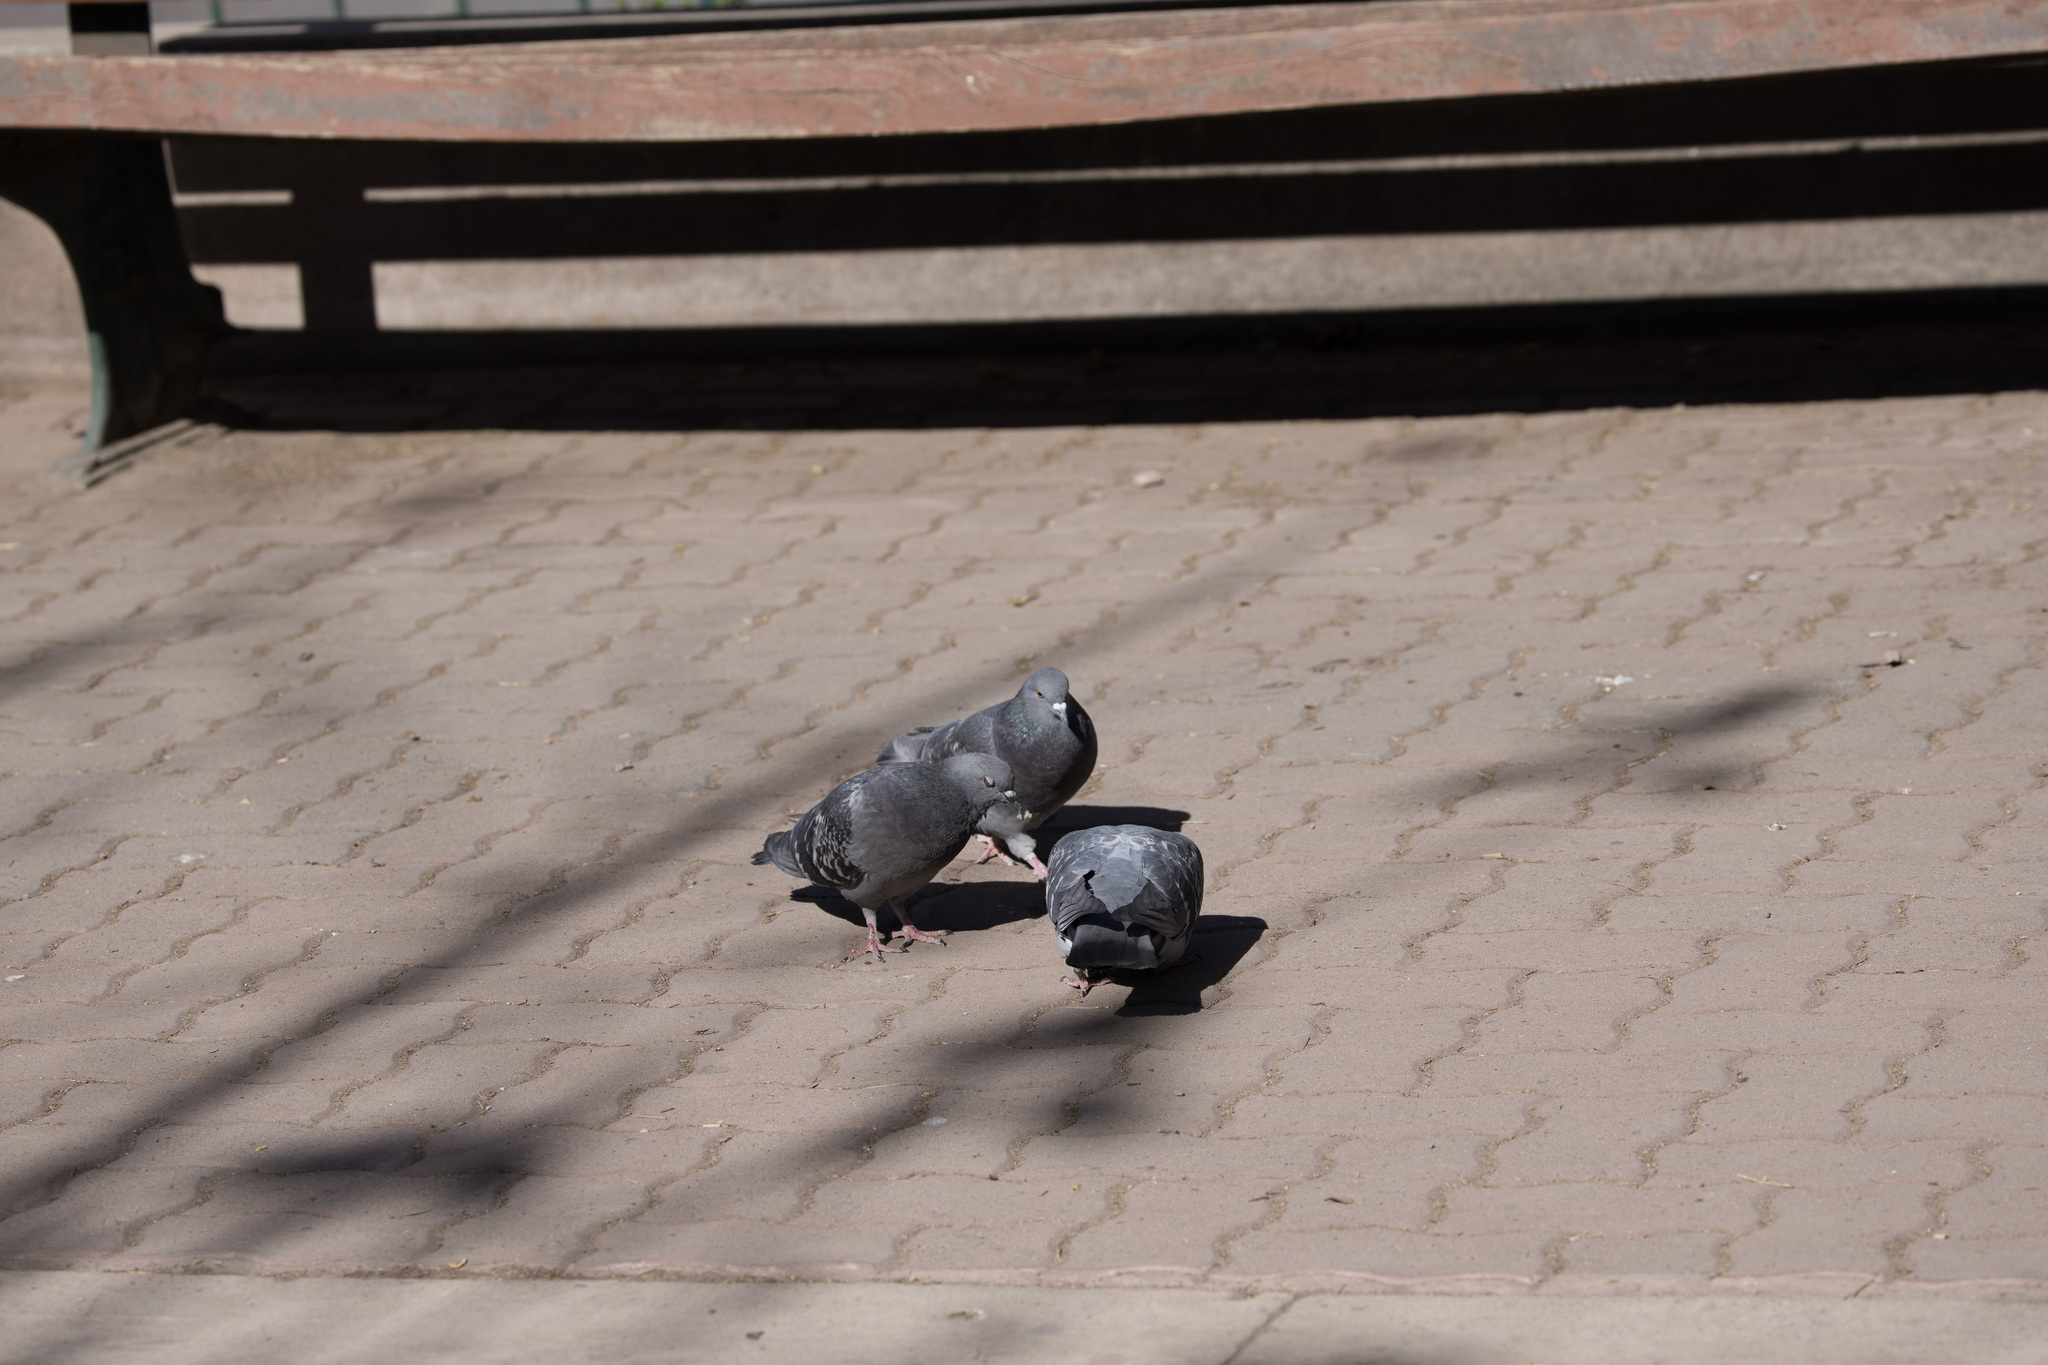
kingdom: Animalia
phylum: Chordata
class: Aves
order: Columbiformes
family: Columbidae
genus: Columba
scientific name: Columba livia
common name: Rock pigeon
